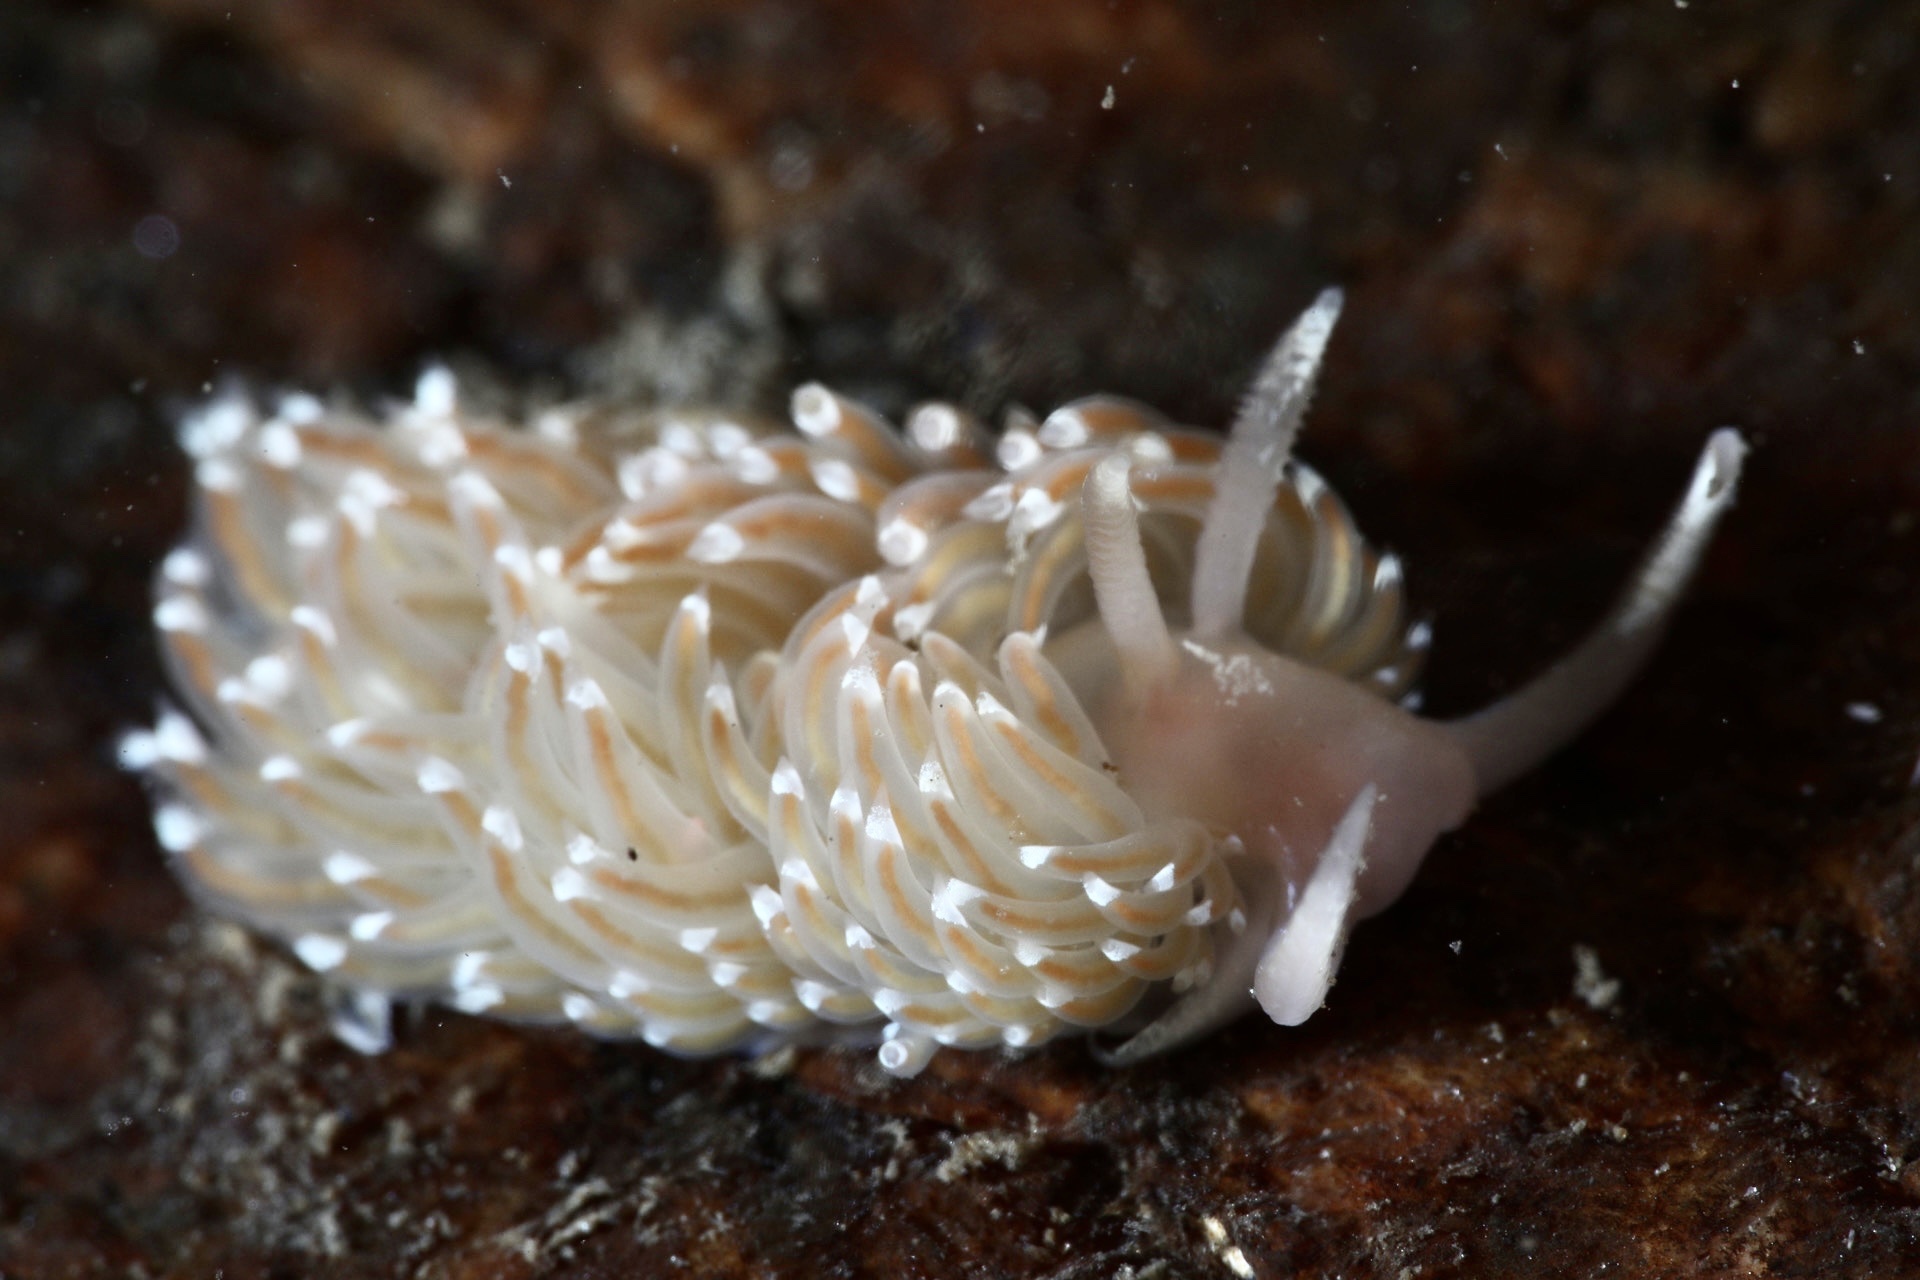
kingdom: Animalia
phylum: Mollusca
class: Gastropoda
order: Nudibranchia
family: Facelinidae
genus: Facelina
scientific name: Facelina bostoniensis
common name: Boston facelina
